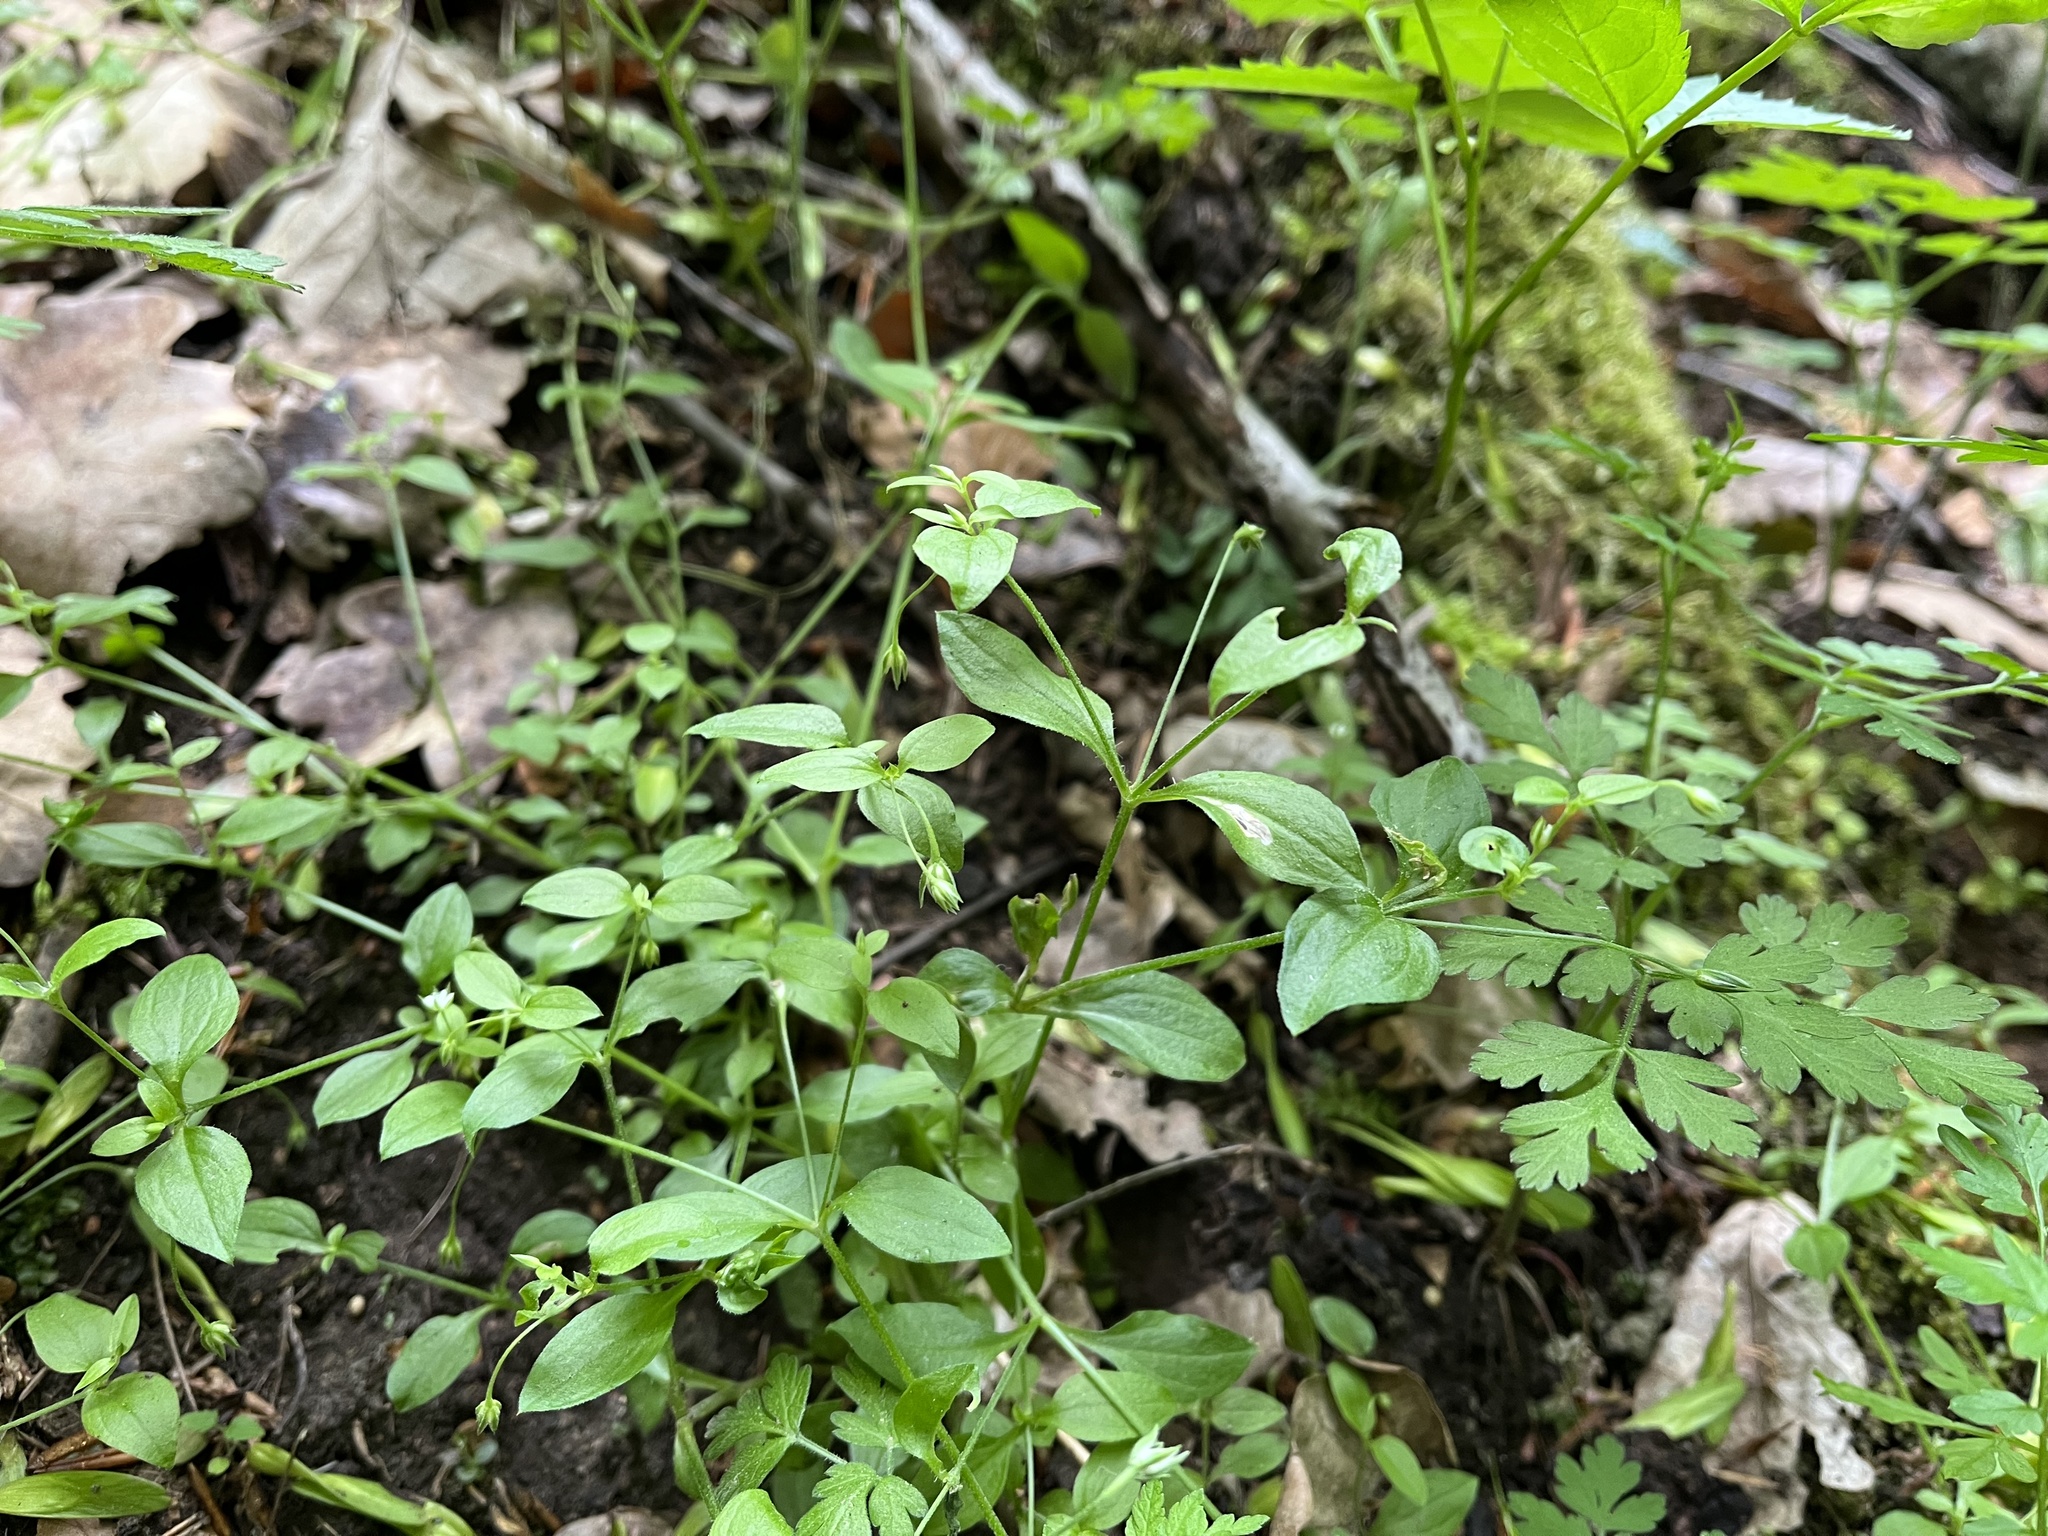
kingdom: Plantae
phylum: Tracheophyta
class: Magnoliopsida
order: Caryophyllales
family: Caryophyllaceae
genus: Moehringia
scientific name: Moehringia trinervia
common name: Three-nerved sandwort
